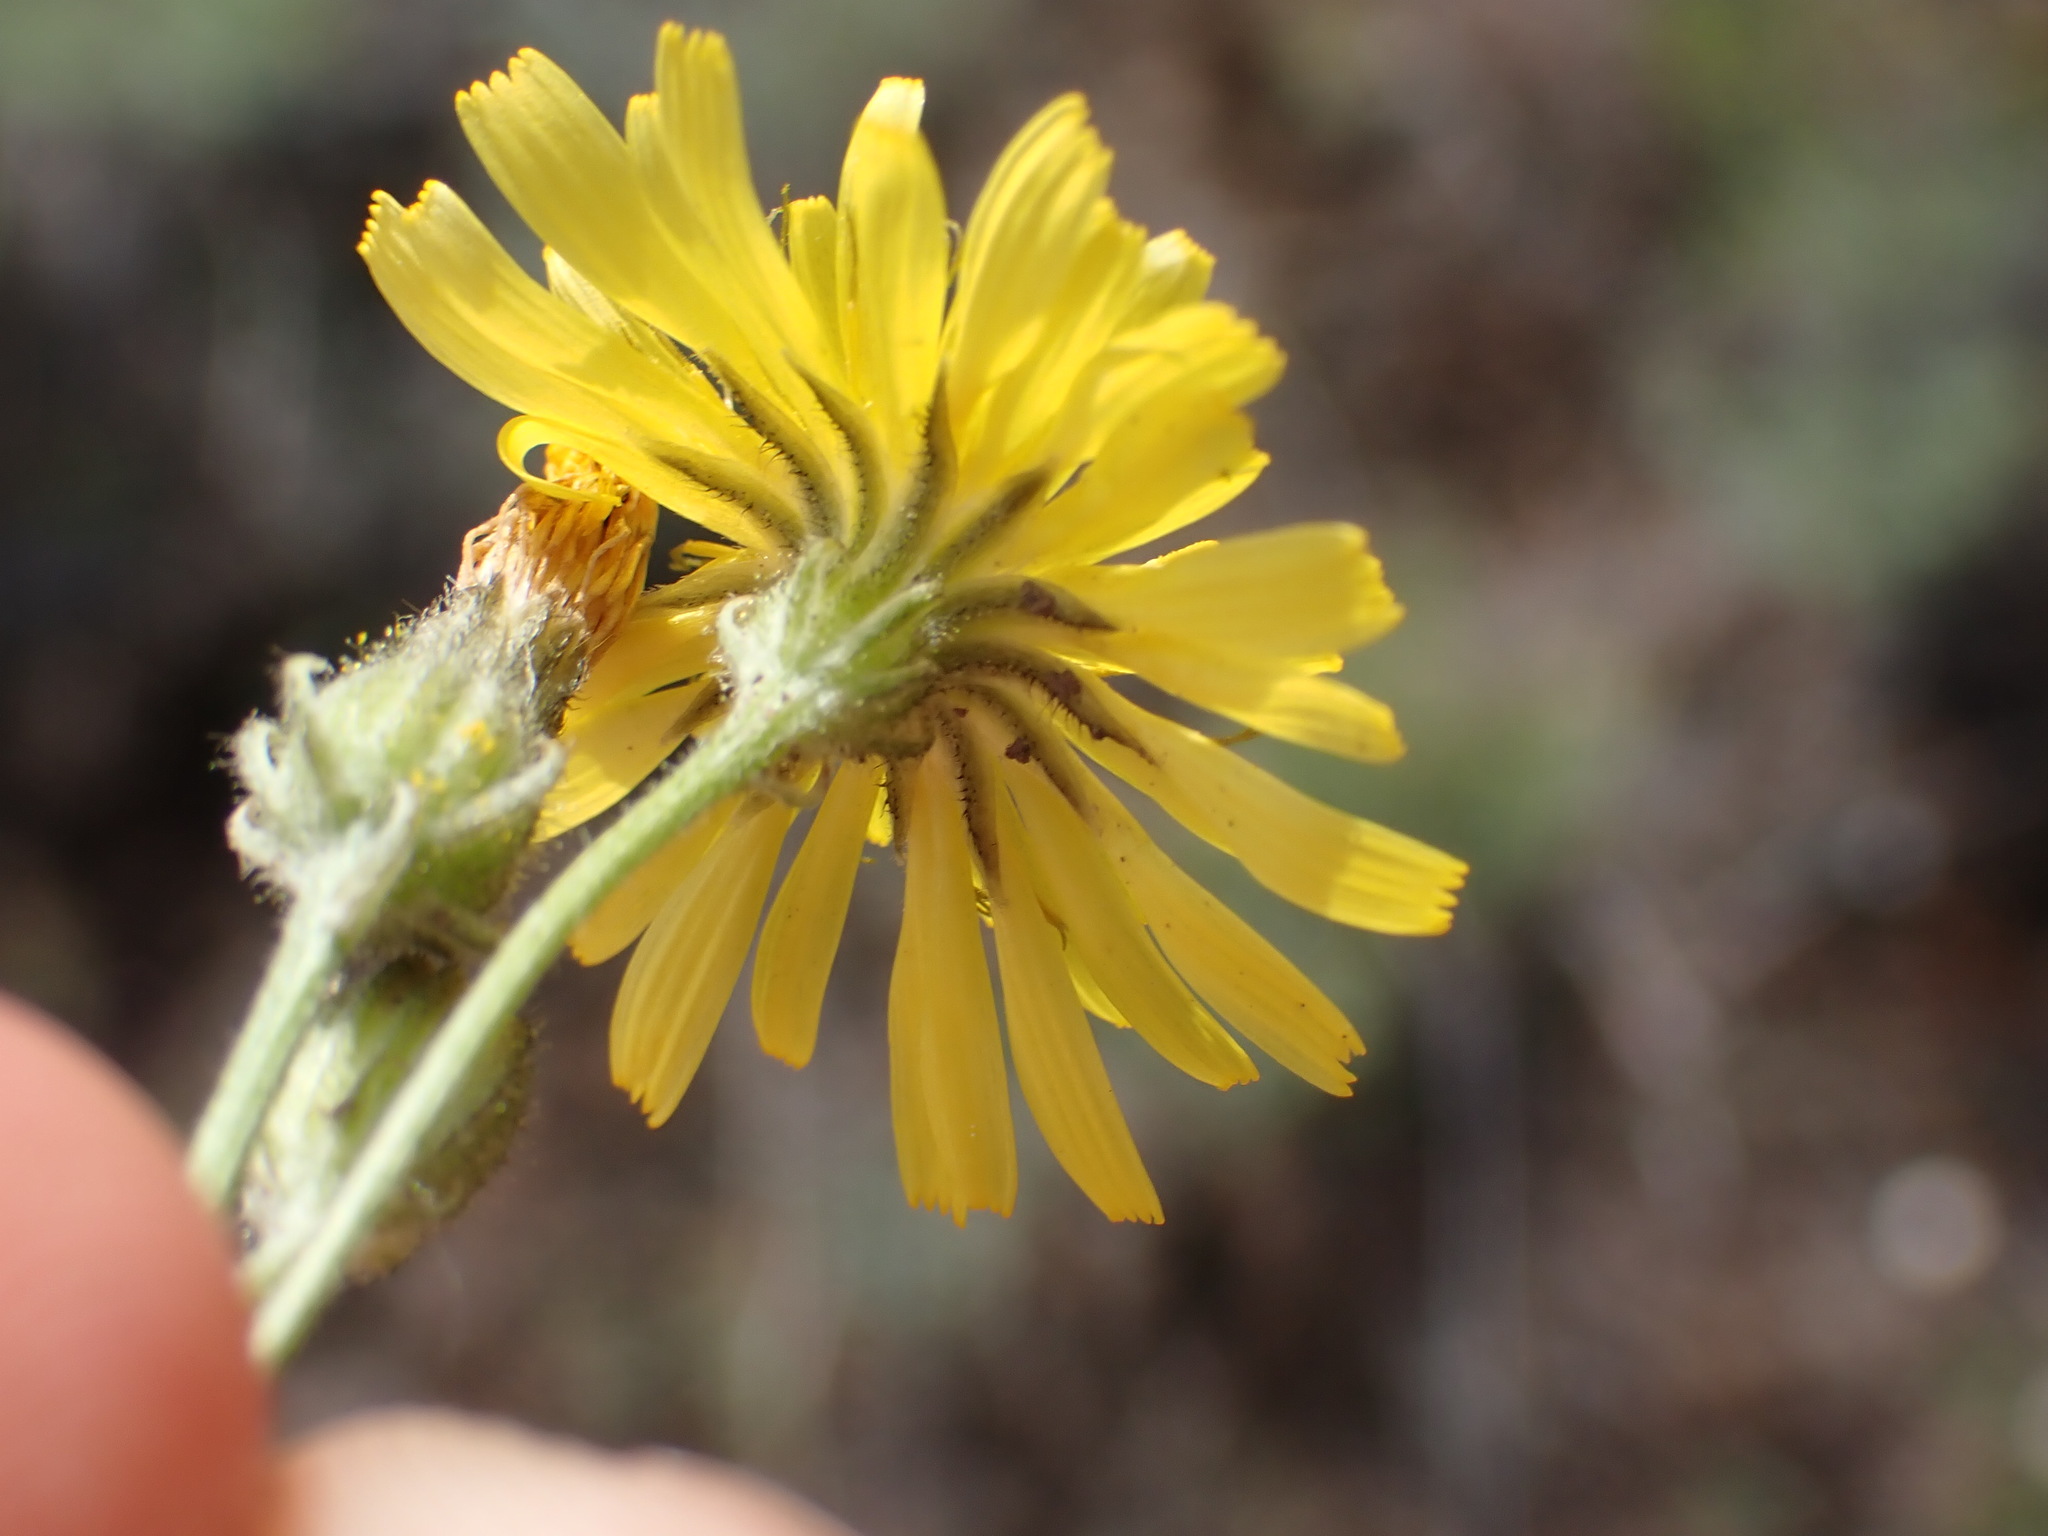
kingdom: Plantae
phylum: Tracheophyta
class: Magnoliopsida
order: Asterales
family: Asteraceae
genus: Crepis
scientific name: Crepis tectorum
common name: Narrow-leaved hawk's-beard
